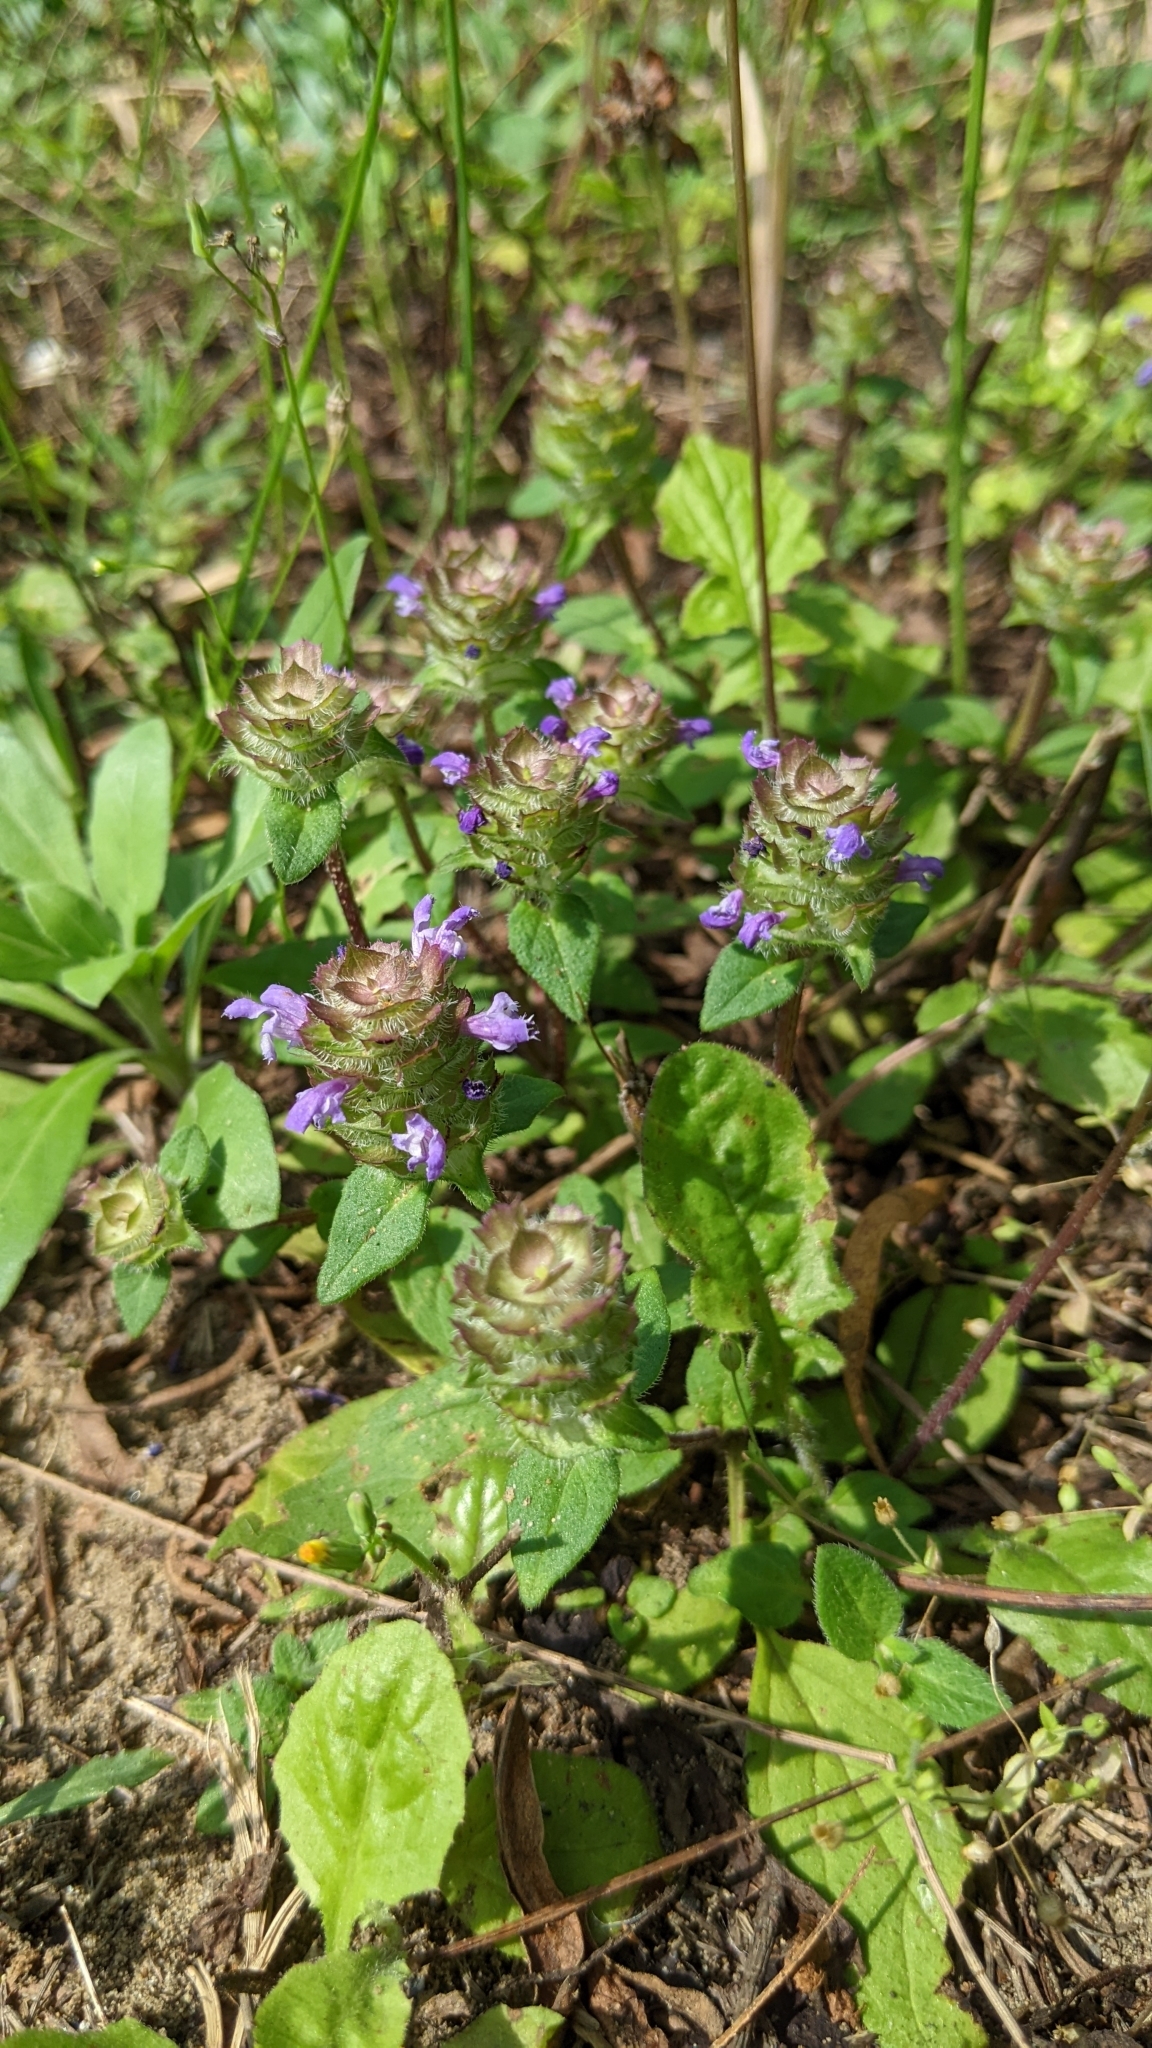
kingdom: Plantae
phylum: Tracheophyta
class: Magnoliopsida
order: Lamiales
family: Lamiaceae
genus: Prunella
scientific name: Prunella vulgaris
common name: Heal-all
